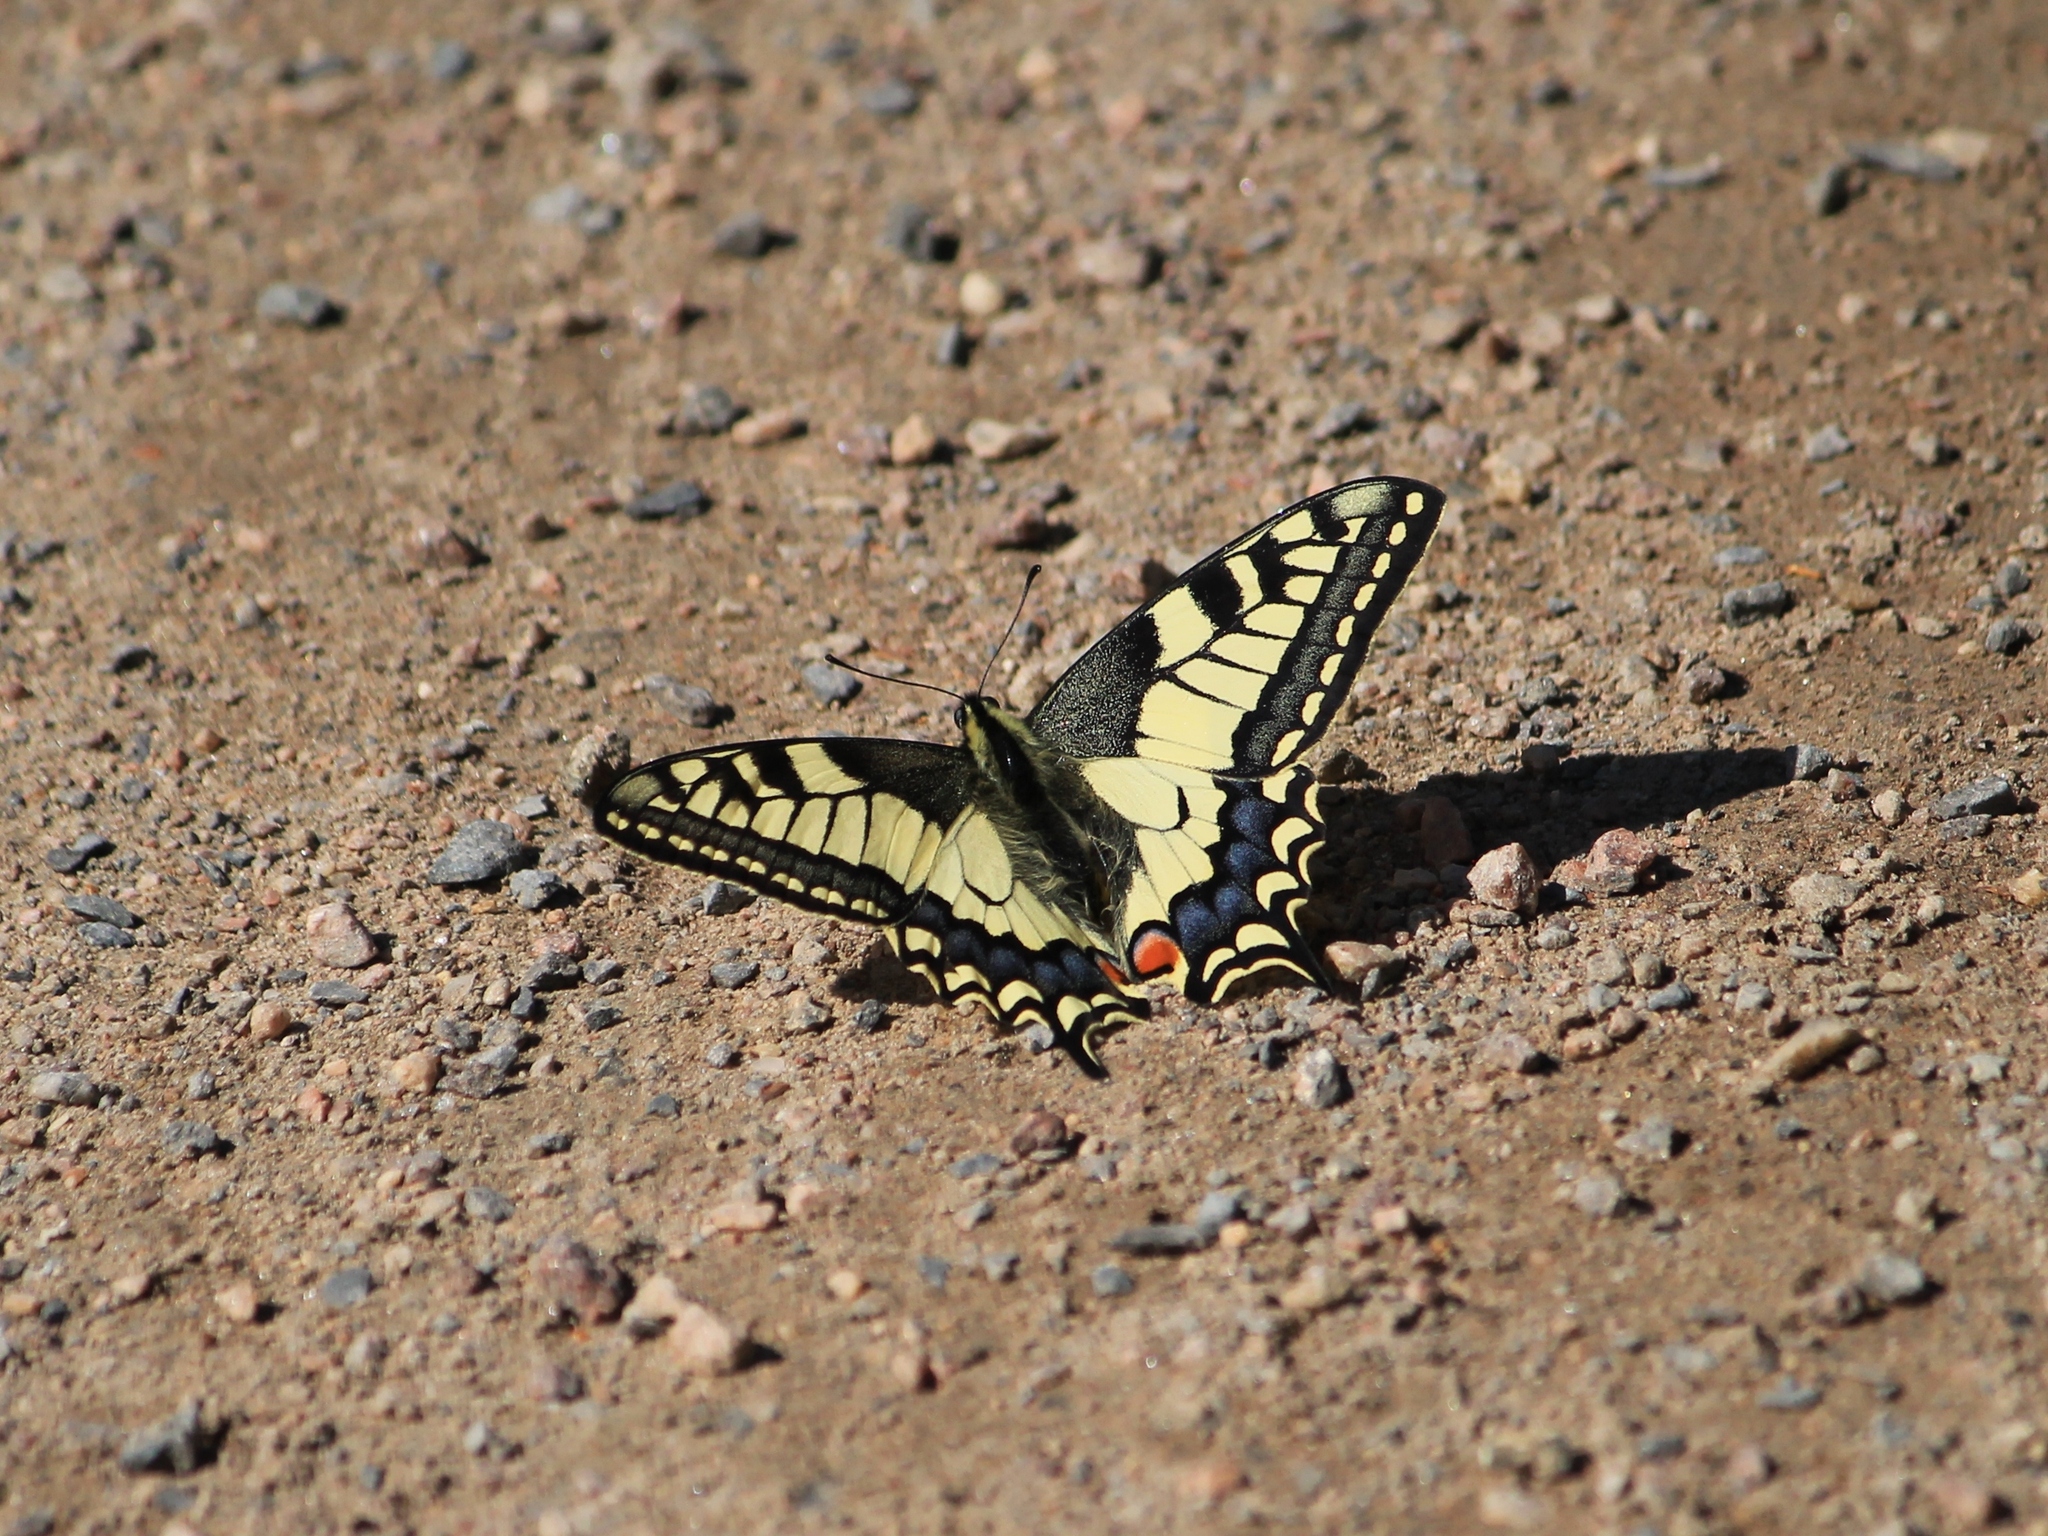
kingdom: Animalia
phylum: Arthropoda
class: Insecta
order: Lepidoptera
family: Papilionidae
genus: Papilio
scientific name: Papilio machaon
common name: Swallowtail
